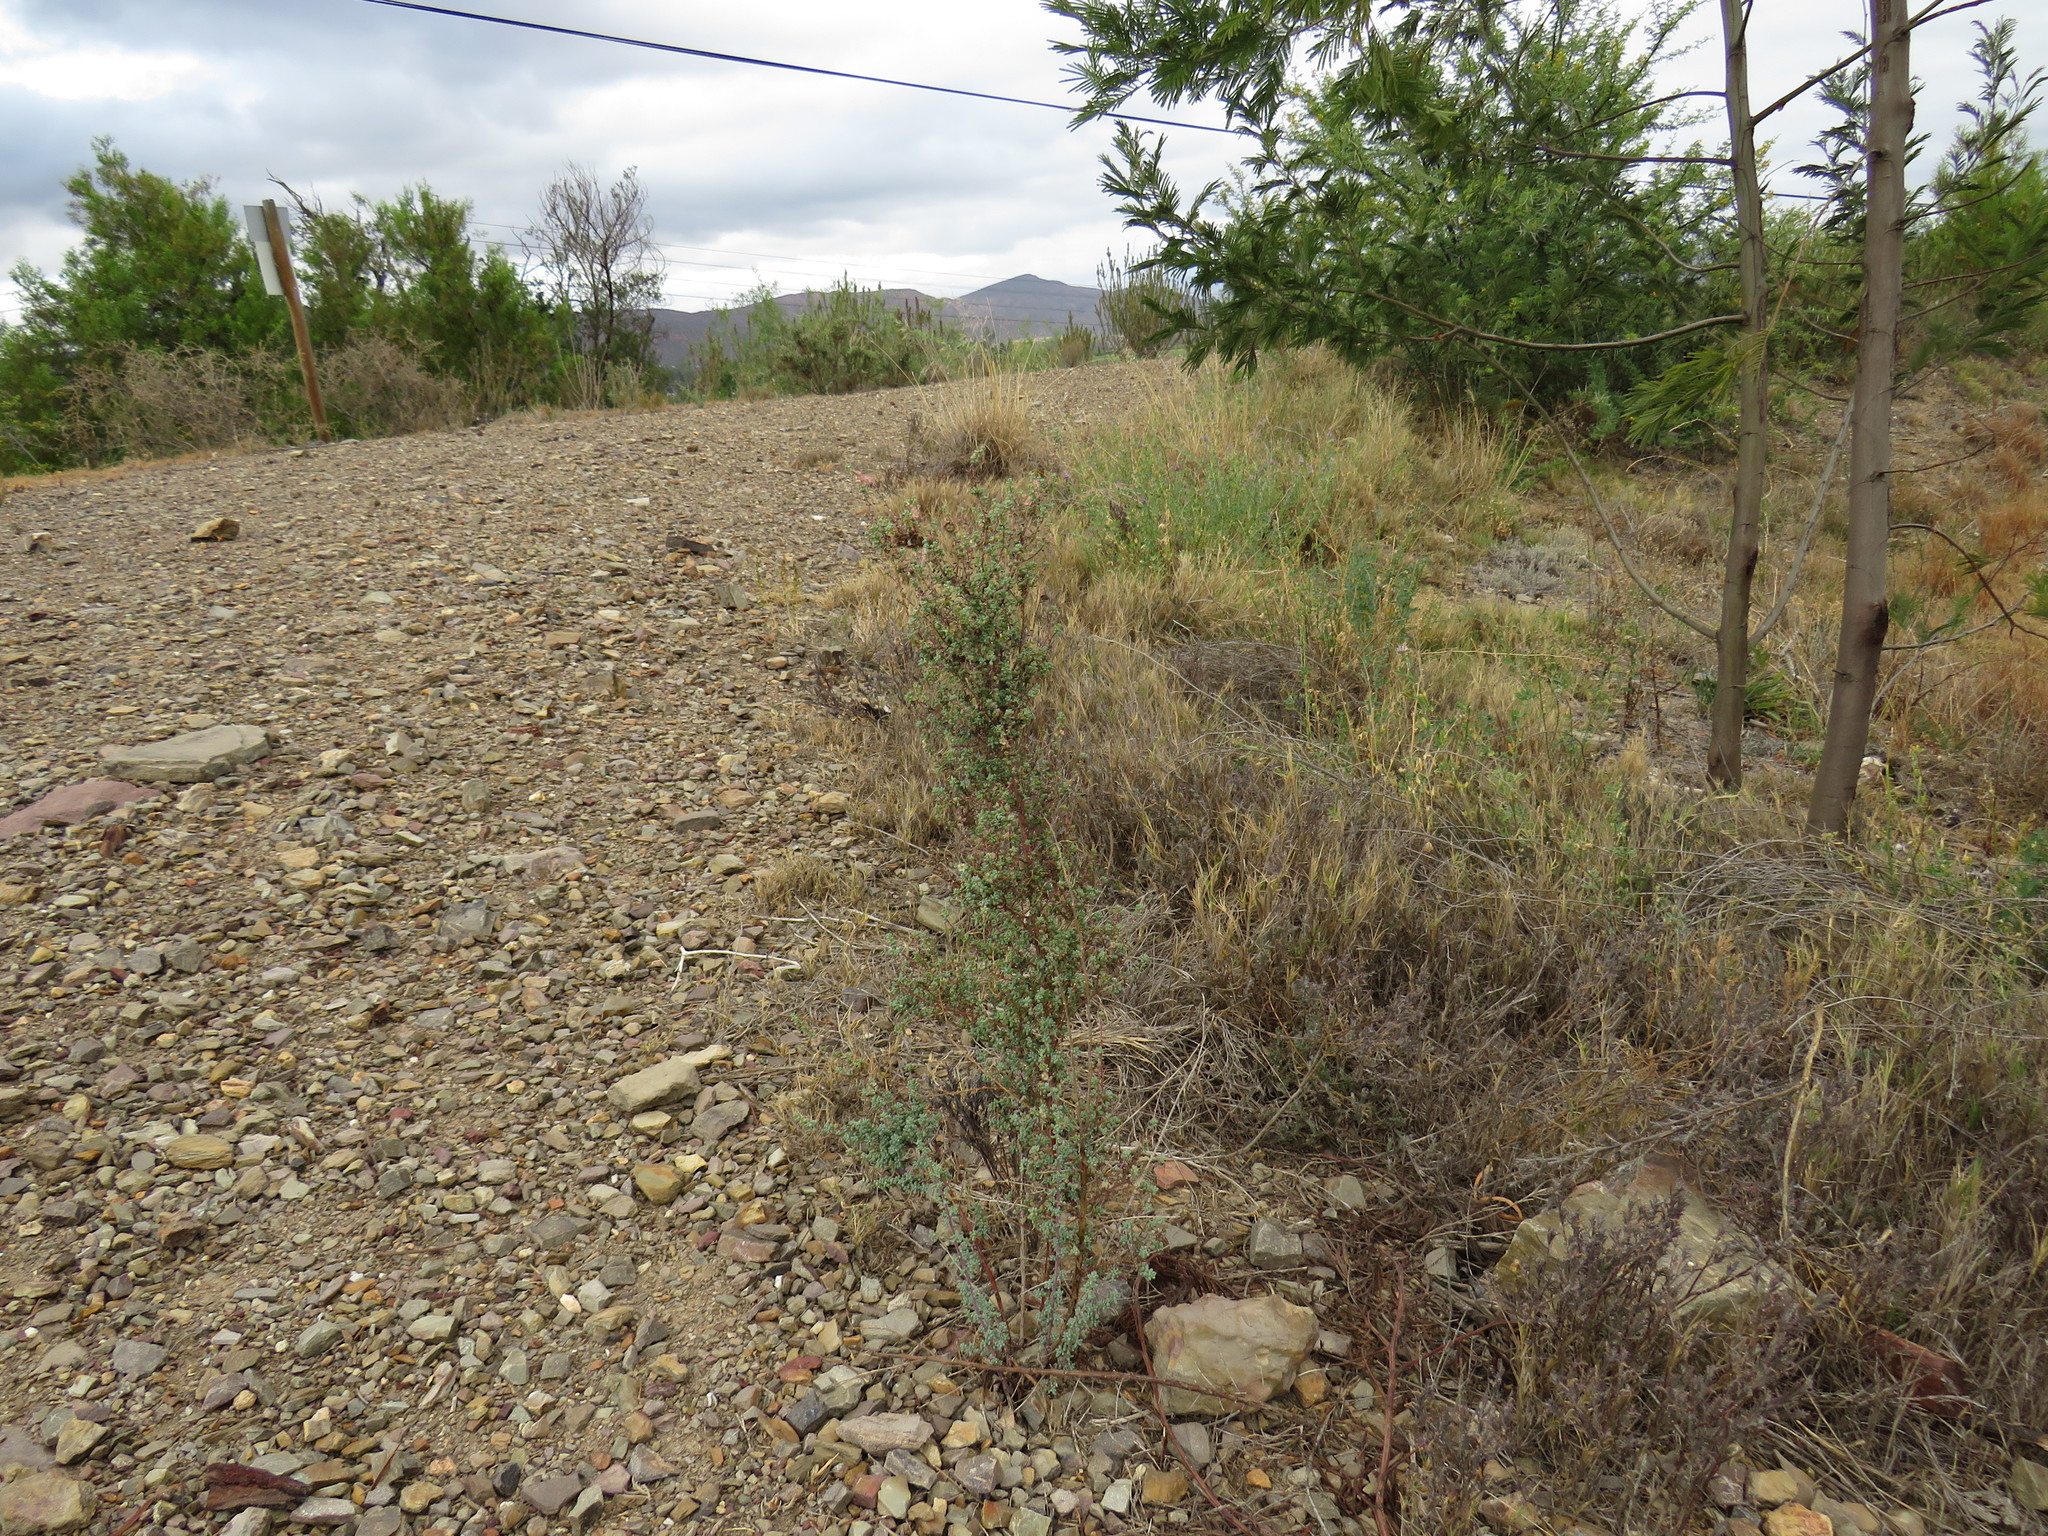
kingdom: Plantae
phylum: Tracheophyta
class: Magnoliopsida
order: Caryophyllales
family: Amaranthaceae
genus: Maireana
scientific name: Maireana brevifolia
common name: Eastern cottonbush
